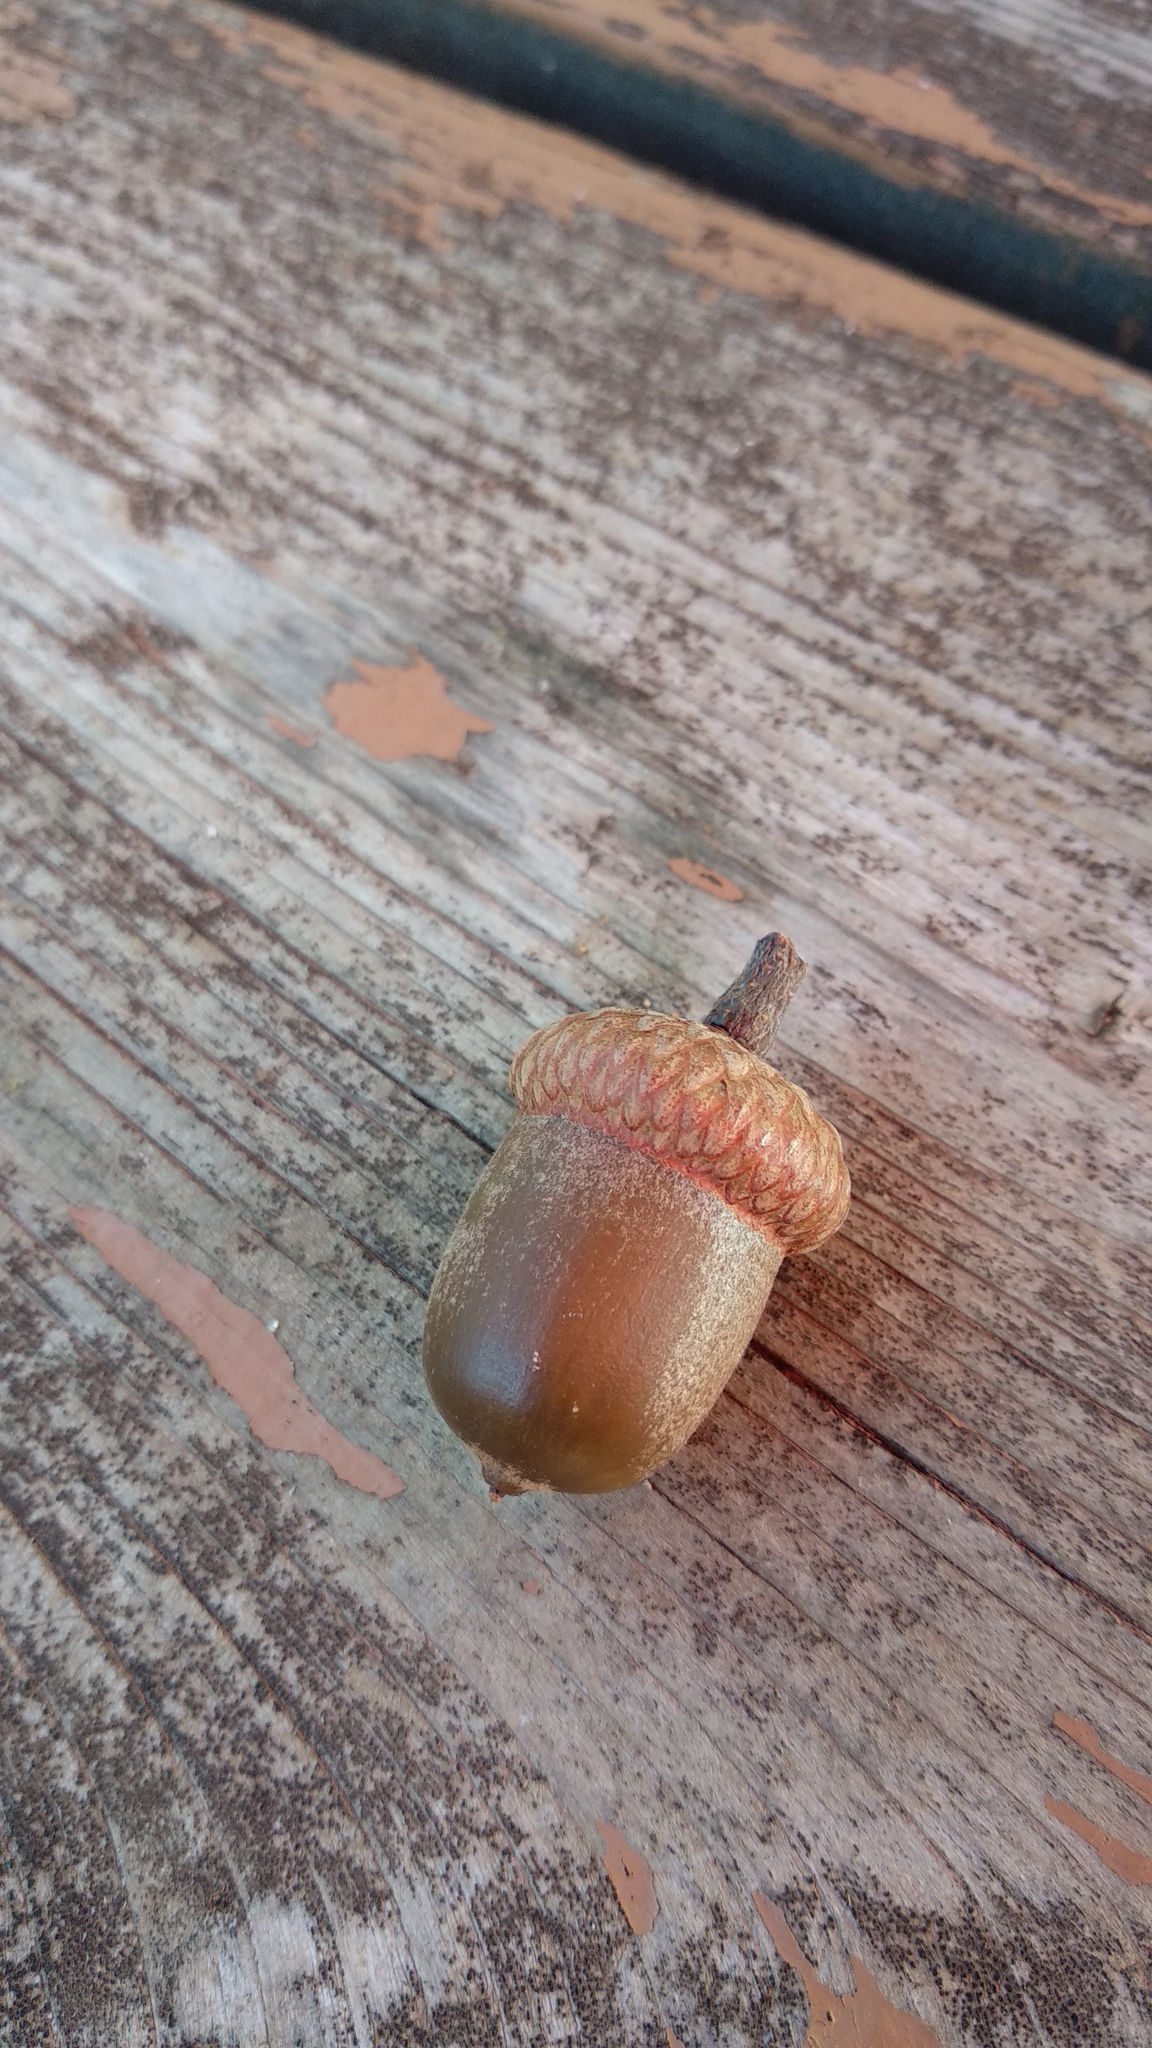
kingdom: Plantae
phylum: Tracheophyta
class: Magnoliopsida
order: Fagales
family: Fagaceae
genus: Quercus
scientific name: Quercus rubra
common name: Red oak
